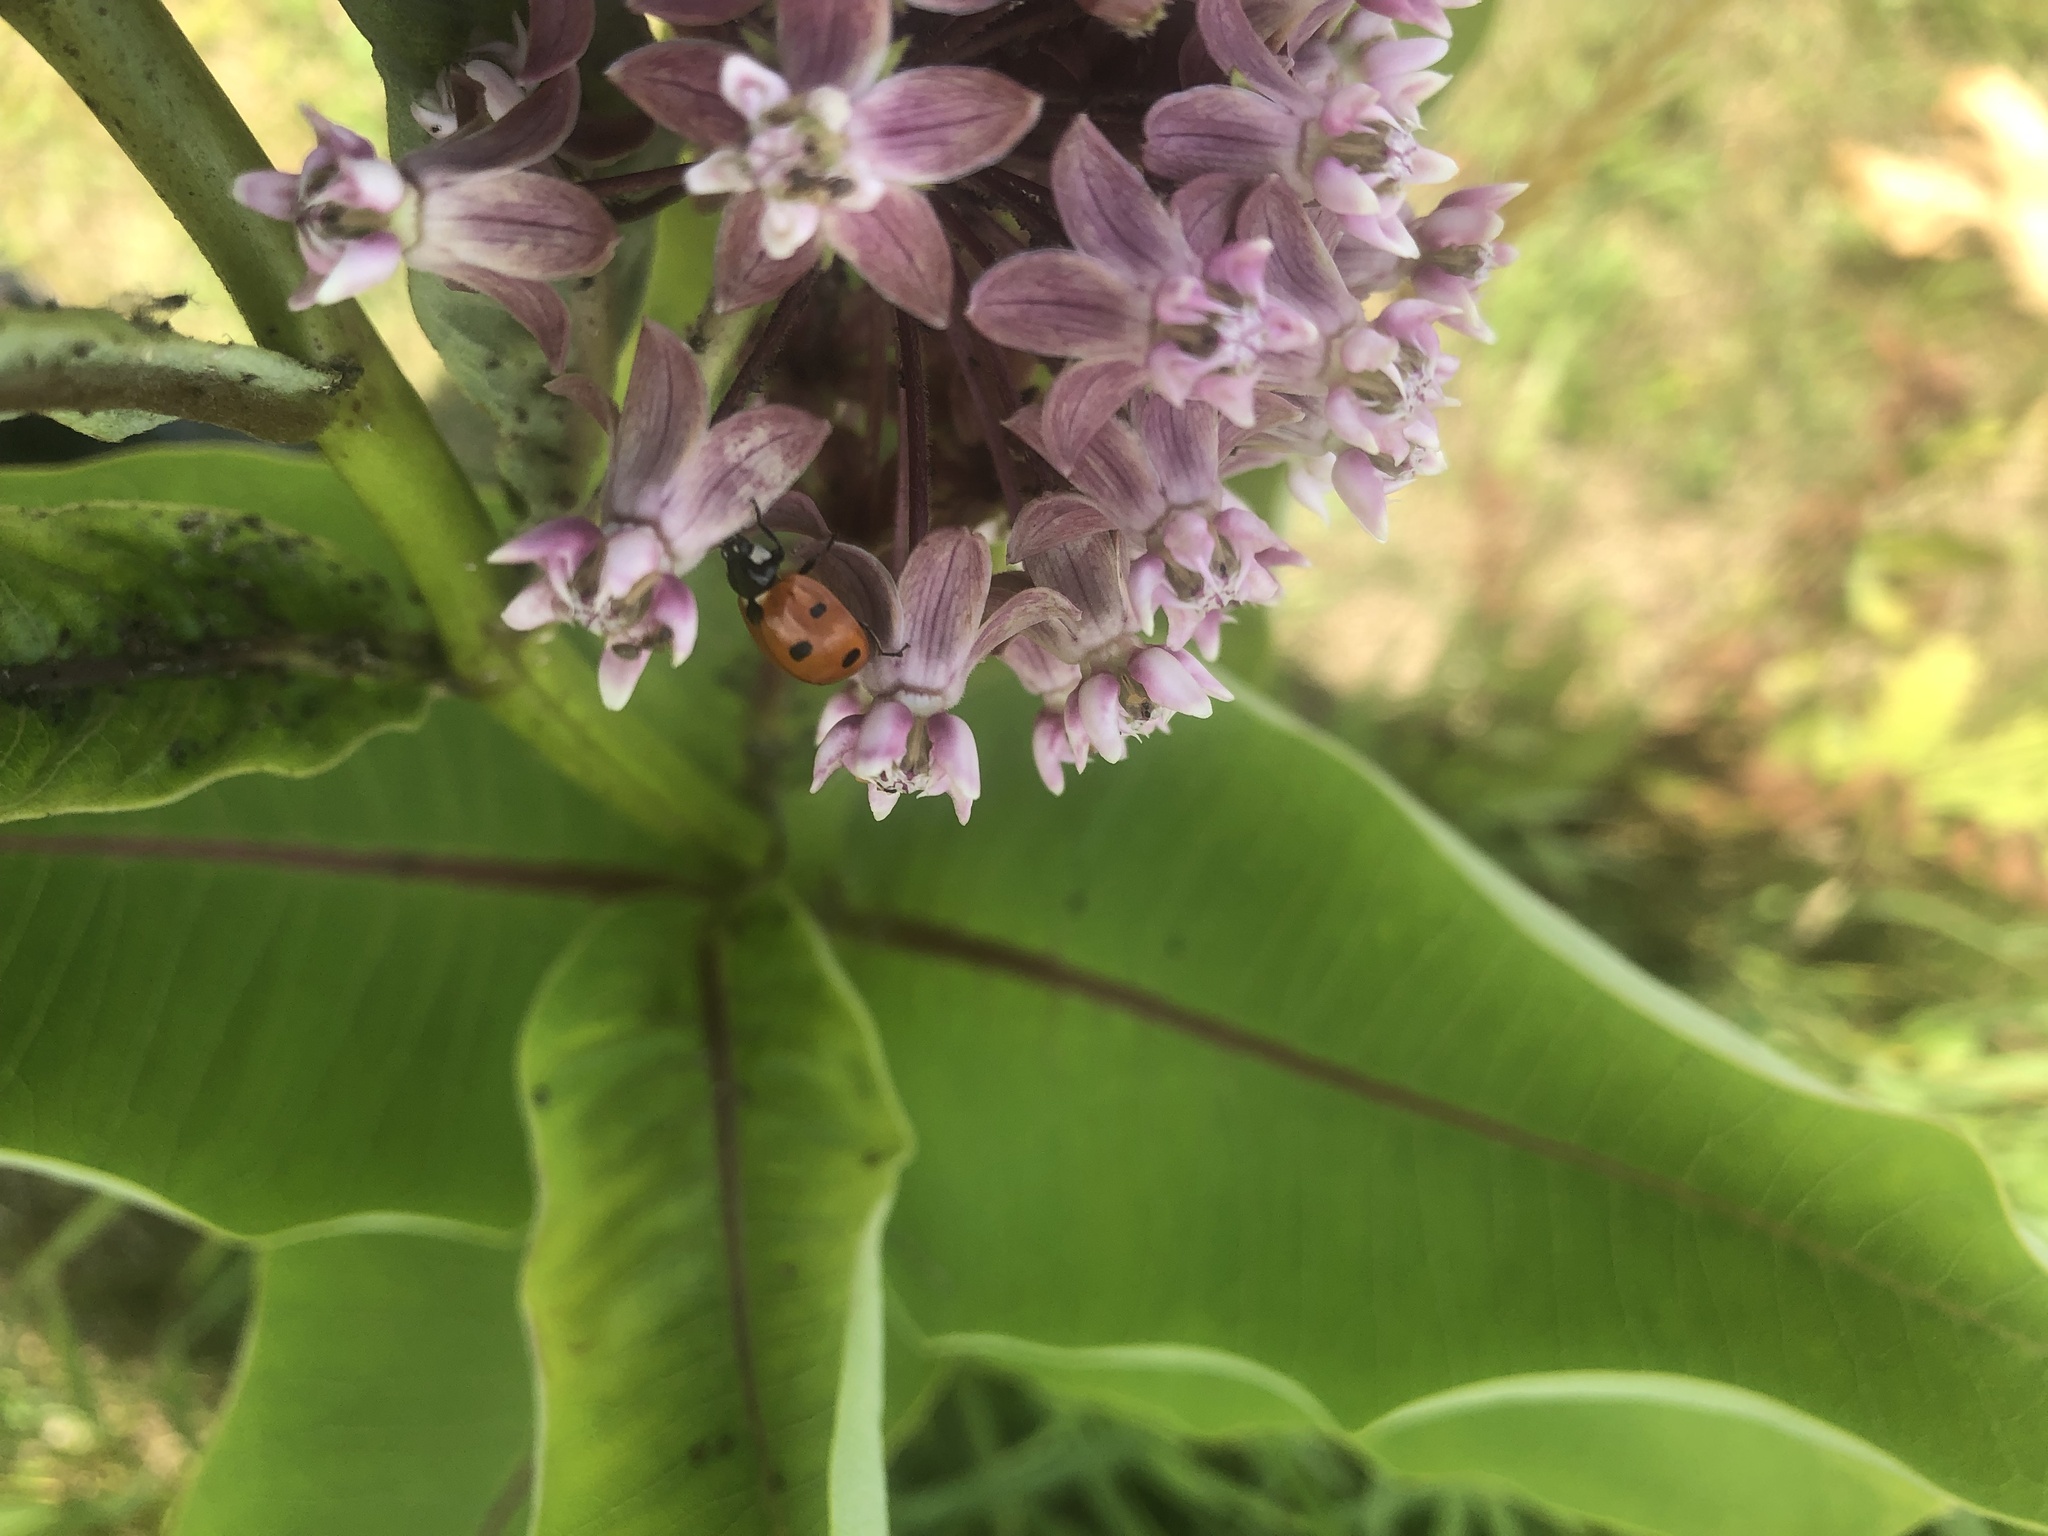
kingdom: Animalia
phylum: Arthropoda
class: Insecta
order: Coleoptera
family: Coccinellidae
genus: Coccinella
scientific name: Coccinella septempunctata
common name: Sevenspotted lady beetle
